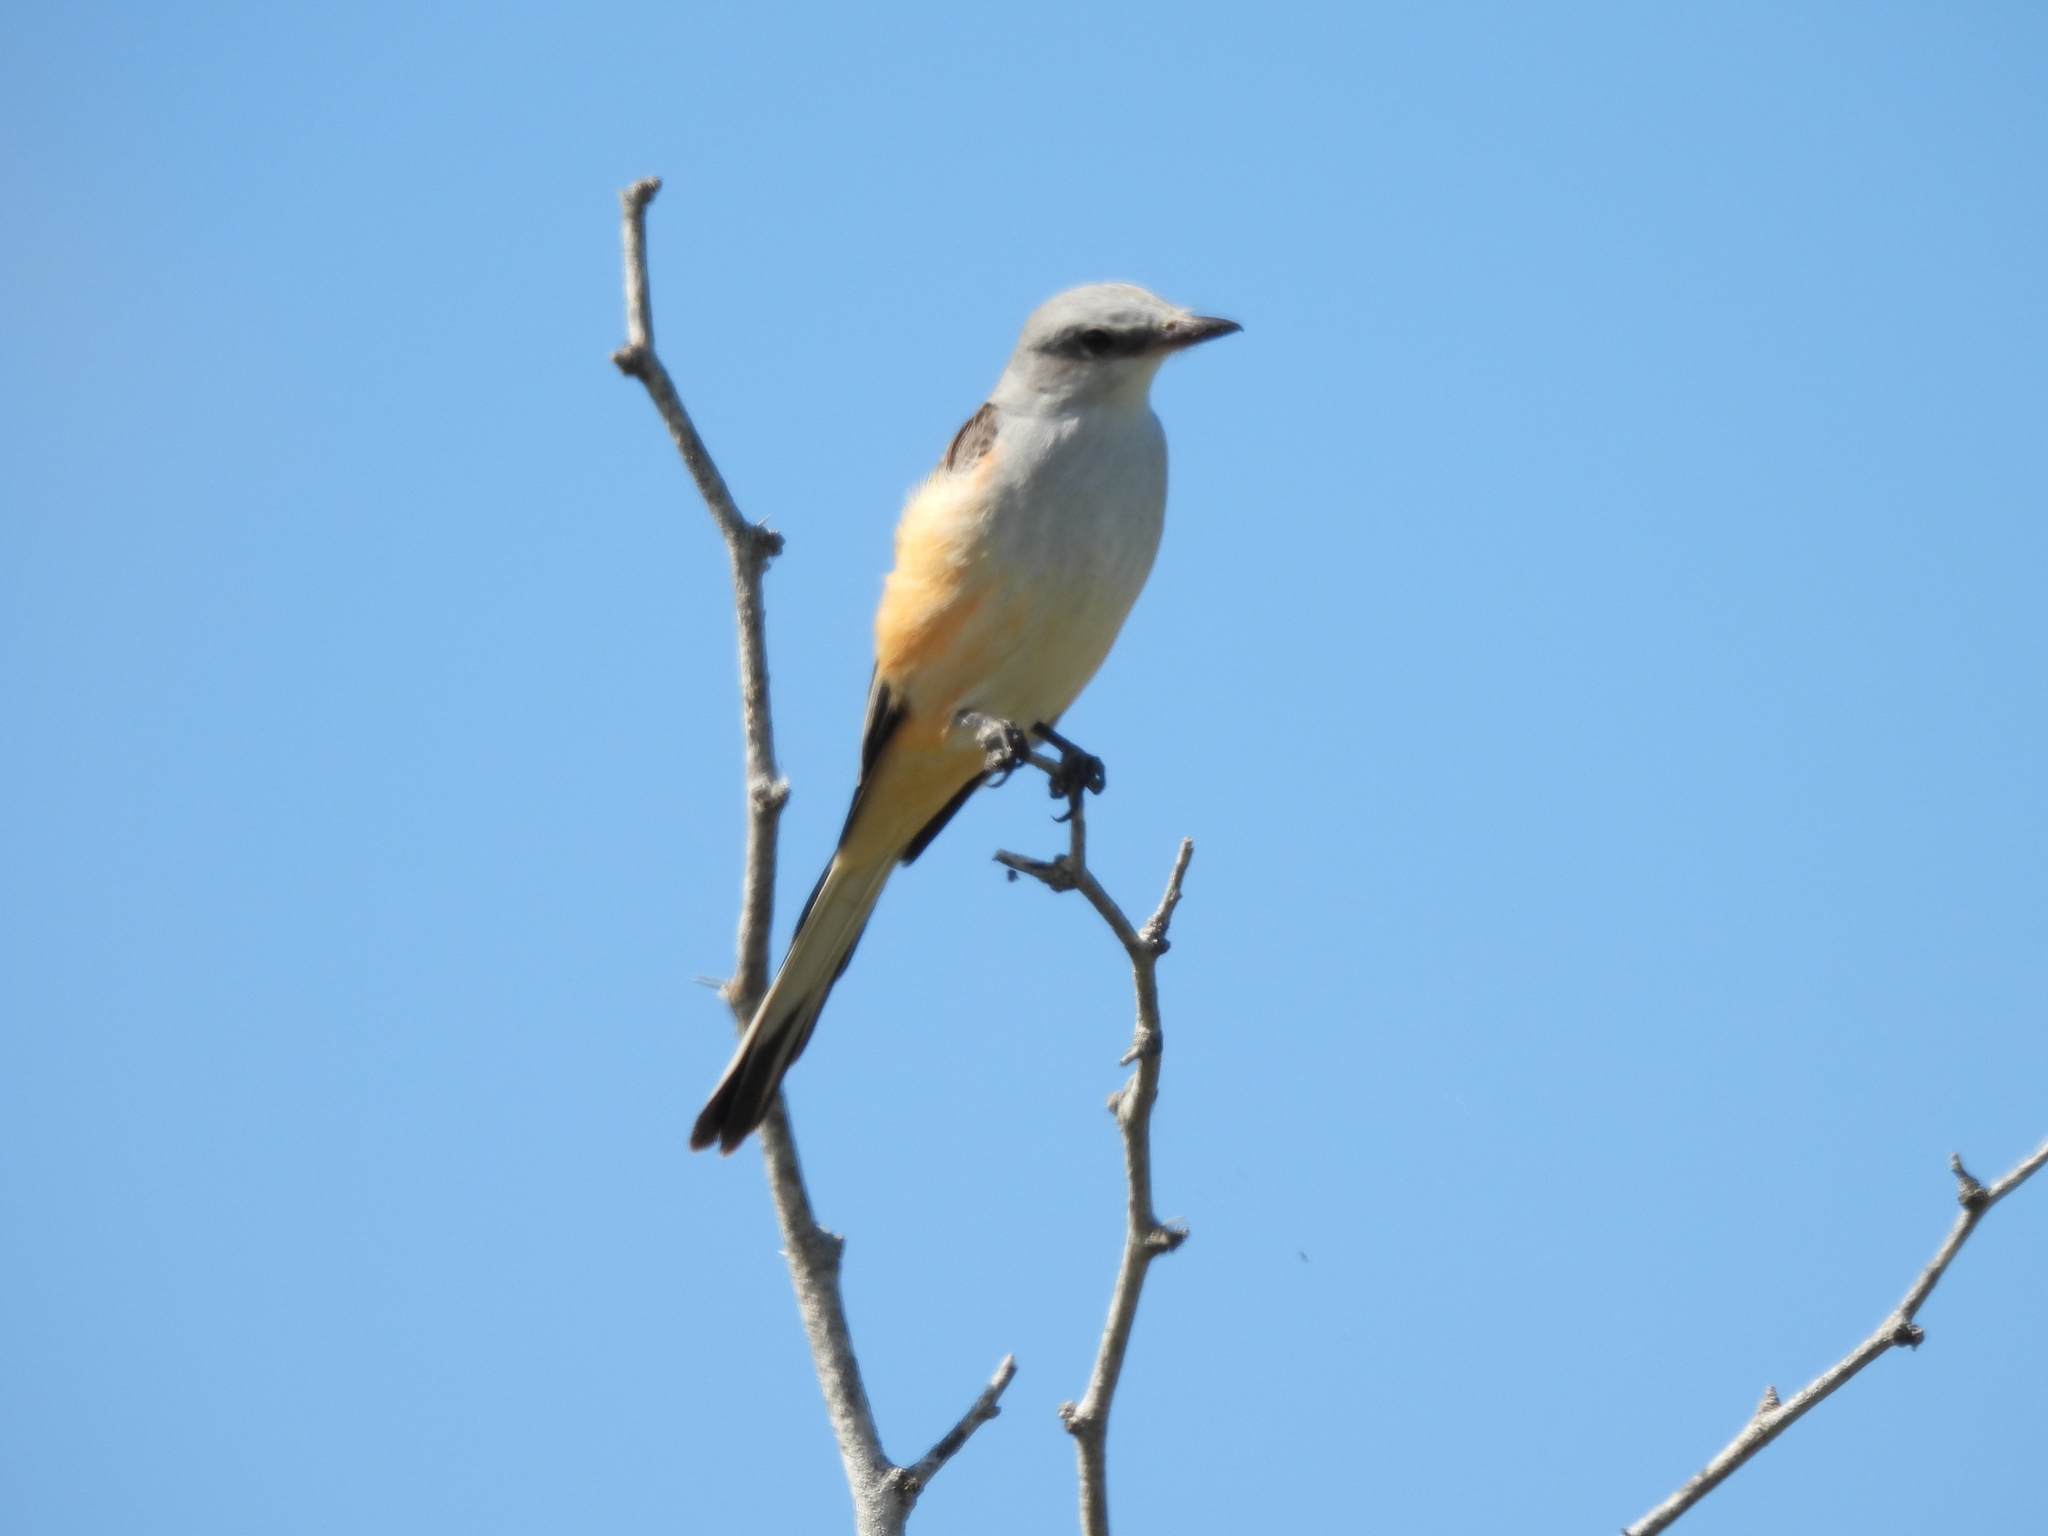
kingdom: Animalia
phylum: Chordata
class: Aves
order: Passeriformes
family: Tyrannidae
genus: Tyrannus
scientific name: Tyrannus forficatus
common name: Scissor-tailed flycatcher
